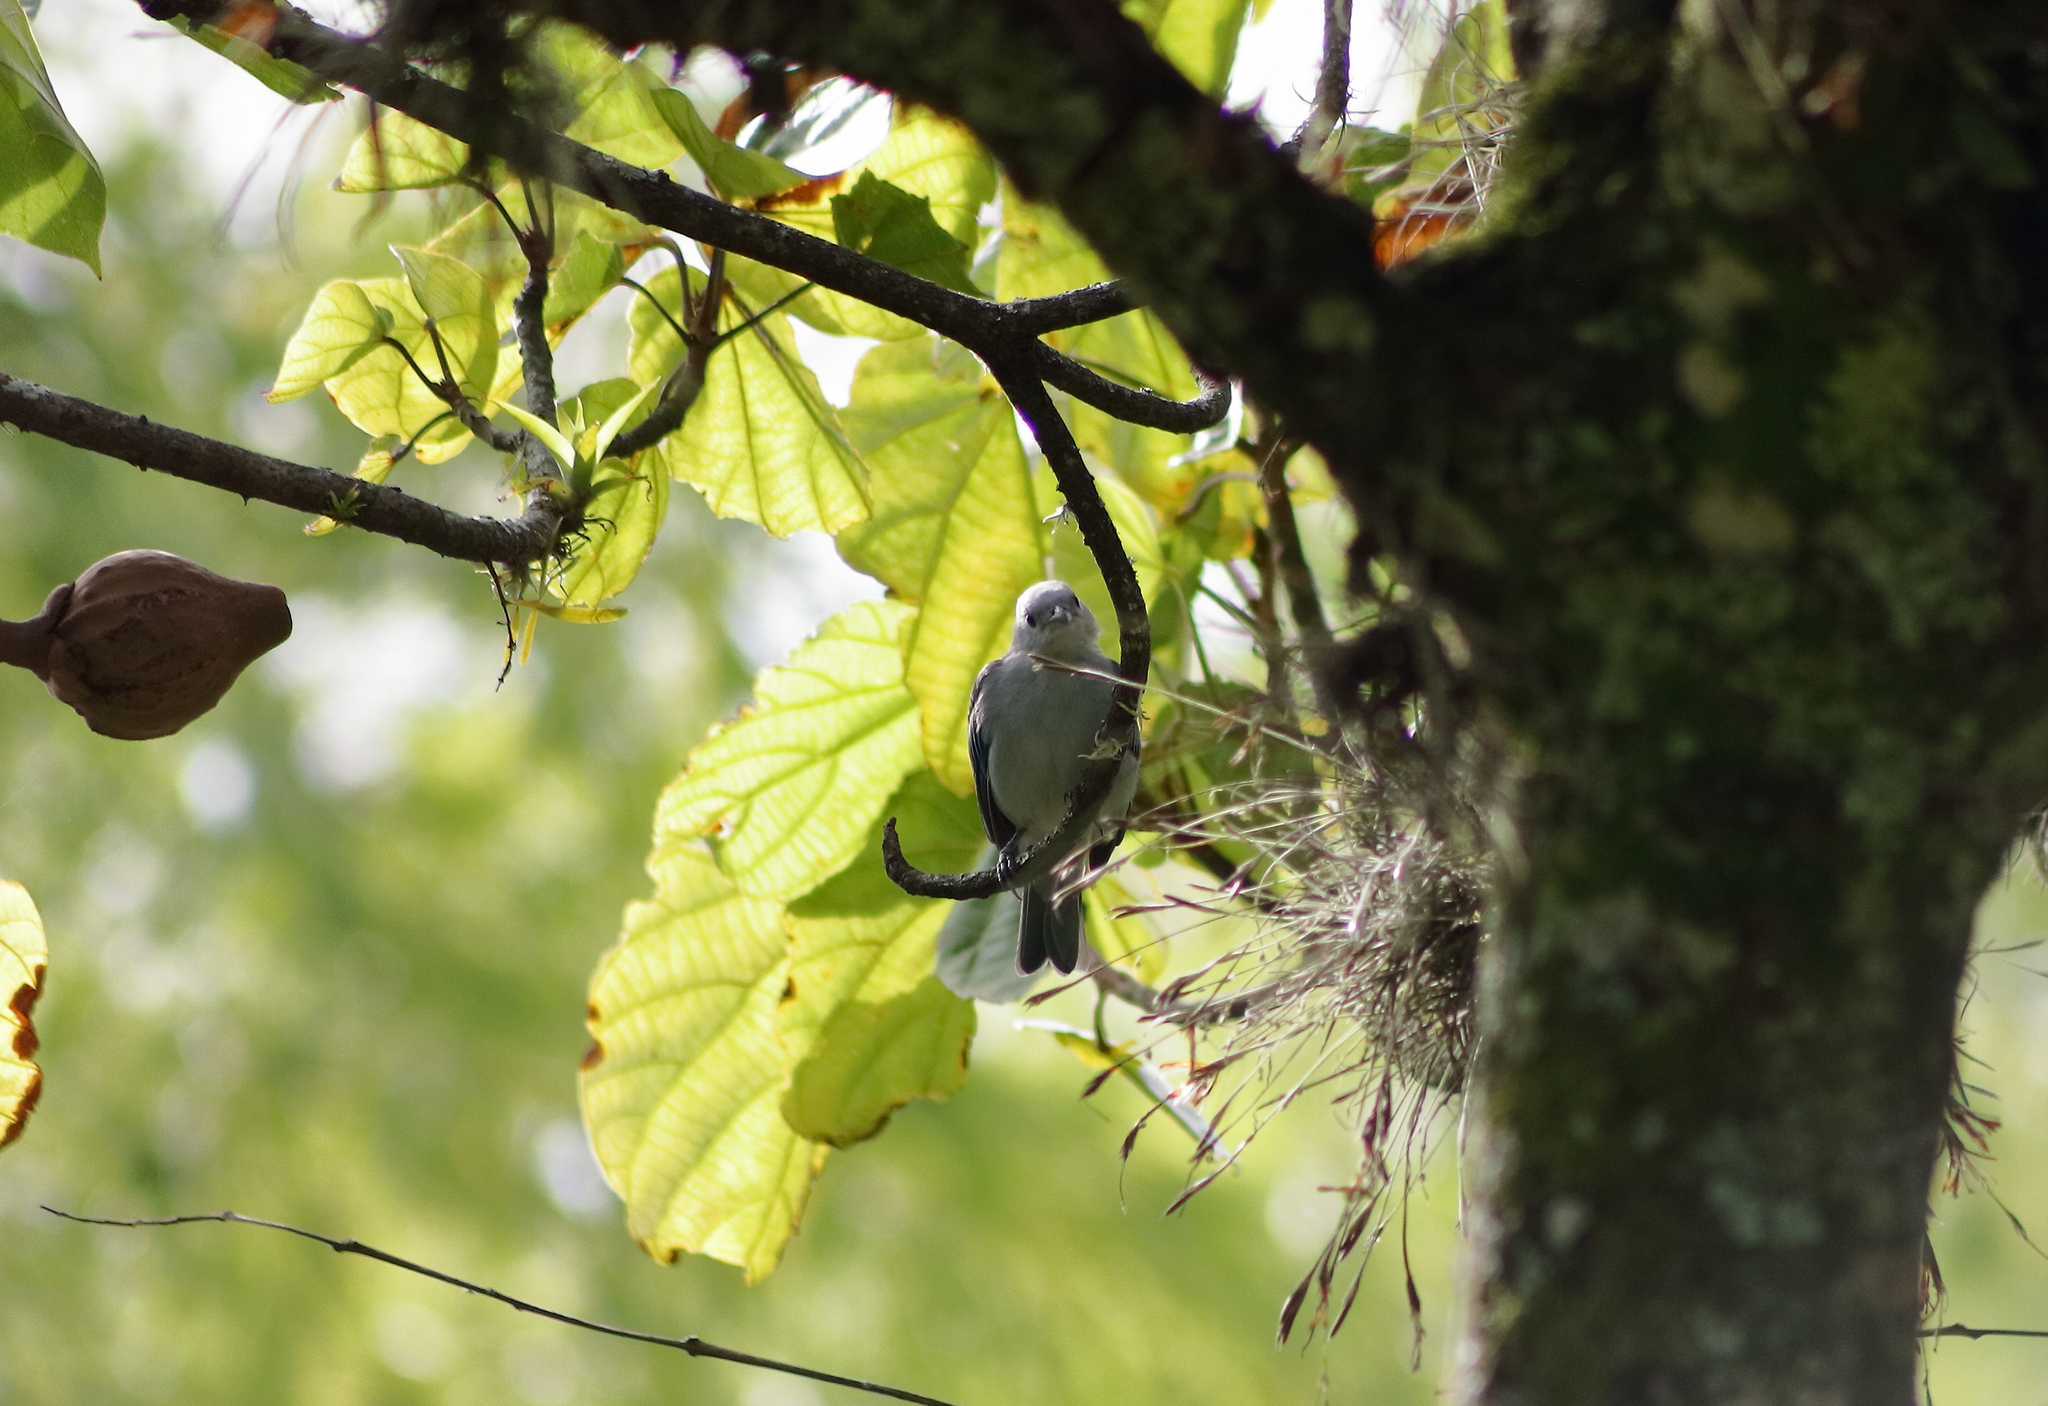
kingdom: Animalia
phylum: Chordata
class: Aves
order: Passeriformes
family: Thraupidae
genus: Thraupis
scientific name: Thraupis episcopus
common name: Blue-grey tanager
